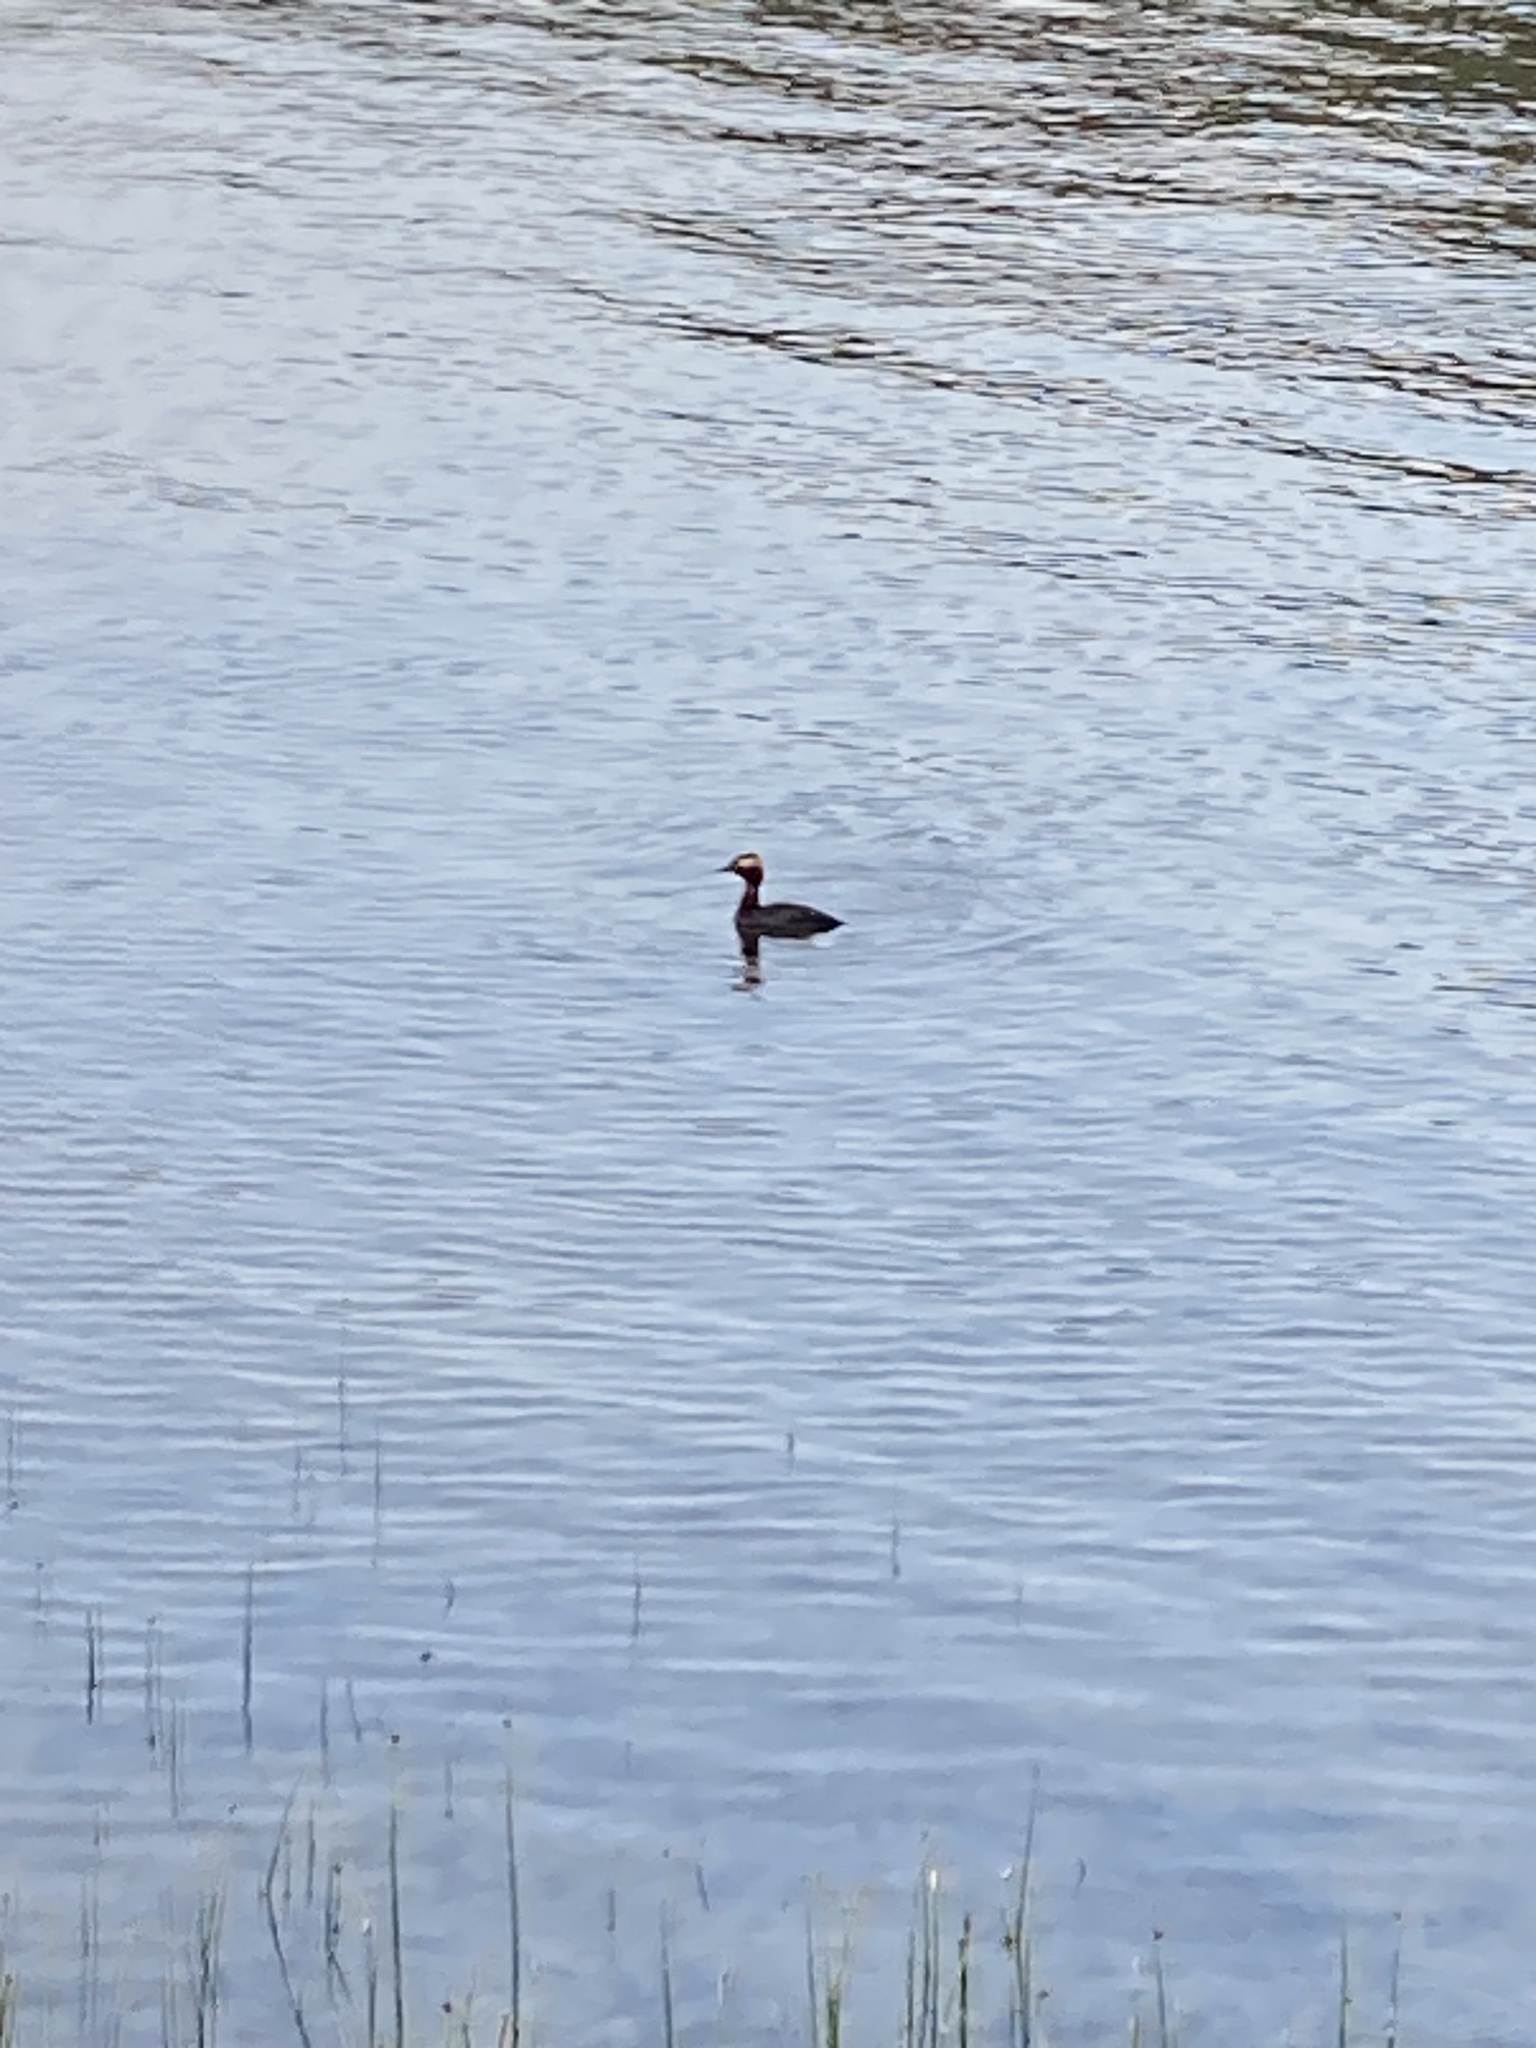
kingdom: Animalia
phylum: Chordata
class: Aves
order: Podicipediformes
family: Podicipedidae
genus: Podiceps
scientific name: Podiceps auritus
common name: Horned grebe
